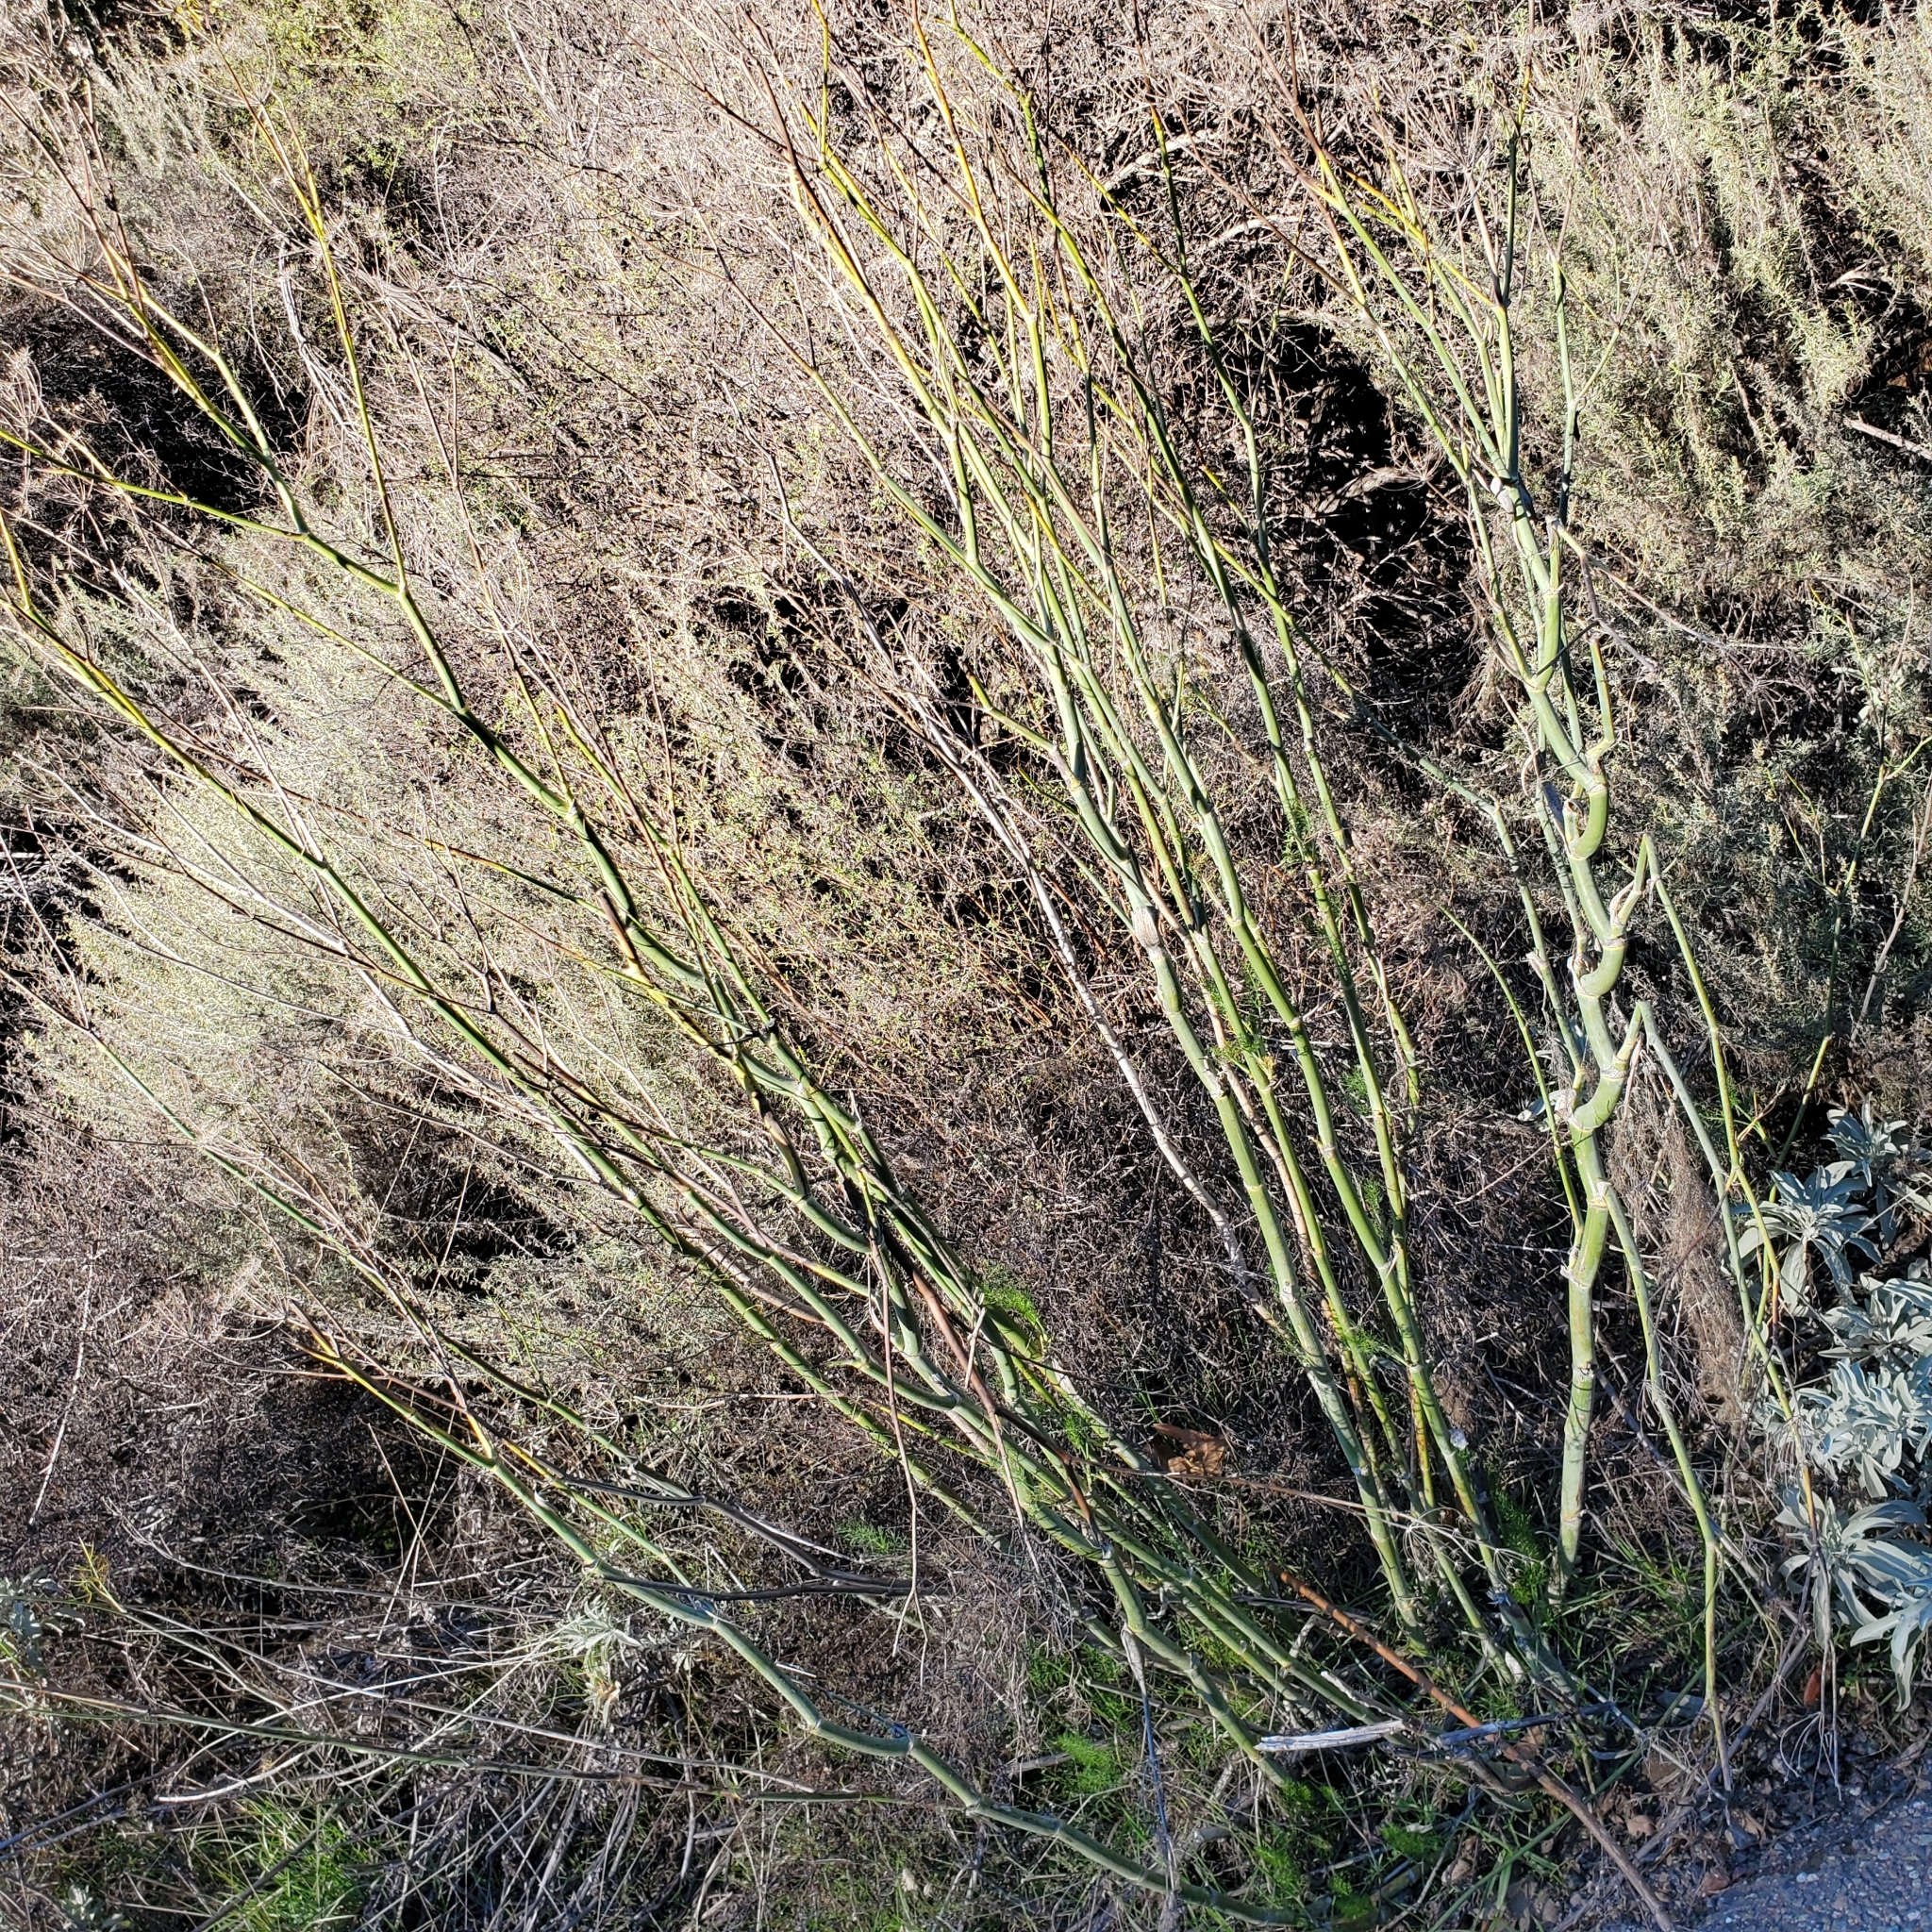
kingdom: Plantae
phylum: Tracheophyta
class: Magnoliopsida
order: Apiales
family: Apiaceae
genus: Foeniculum
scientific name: Foeniculum vulgare
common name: Fennel
